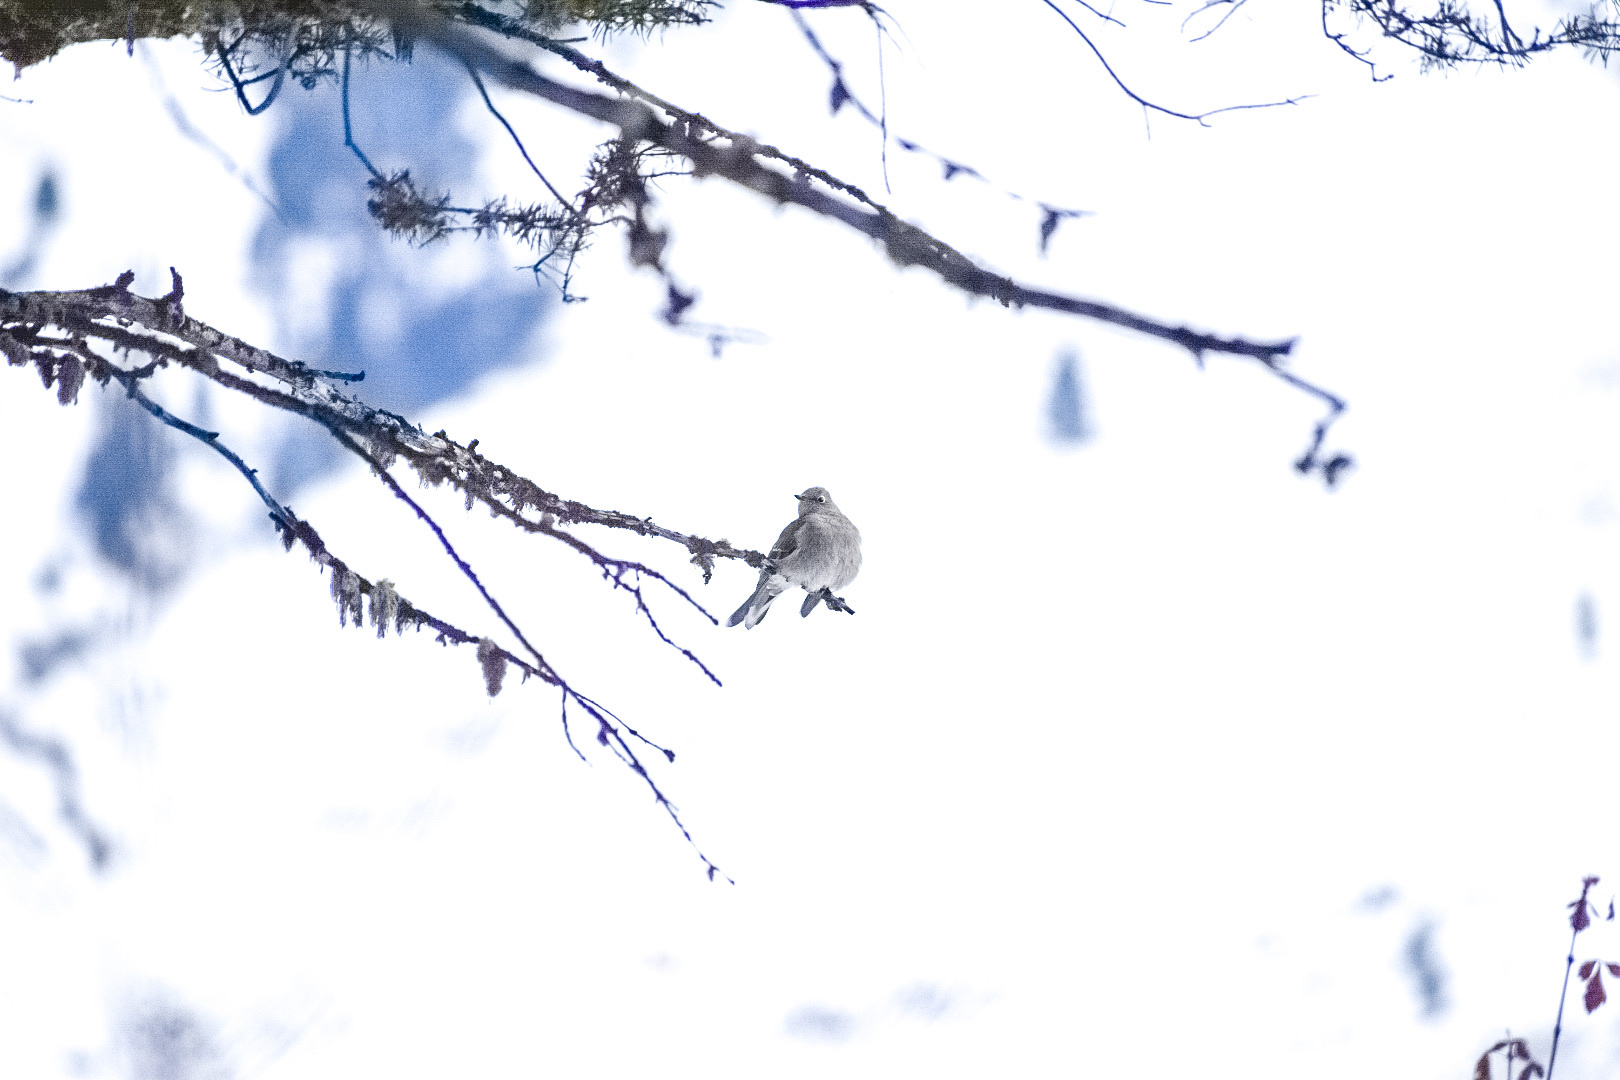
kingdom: Animalia
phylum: Chordata
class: Aves
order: Passeriformes
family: Turdidae
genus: Myadestes
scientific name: Myadestes townsendi
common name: Townsend's solitaire
